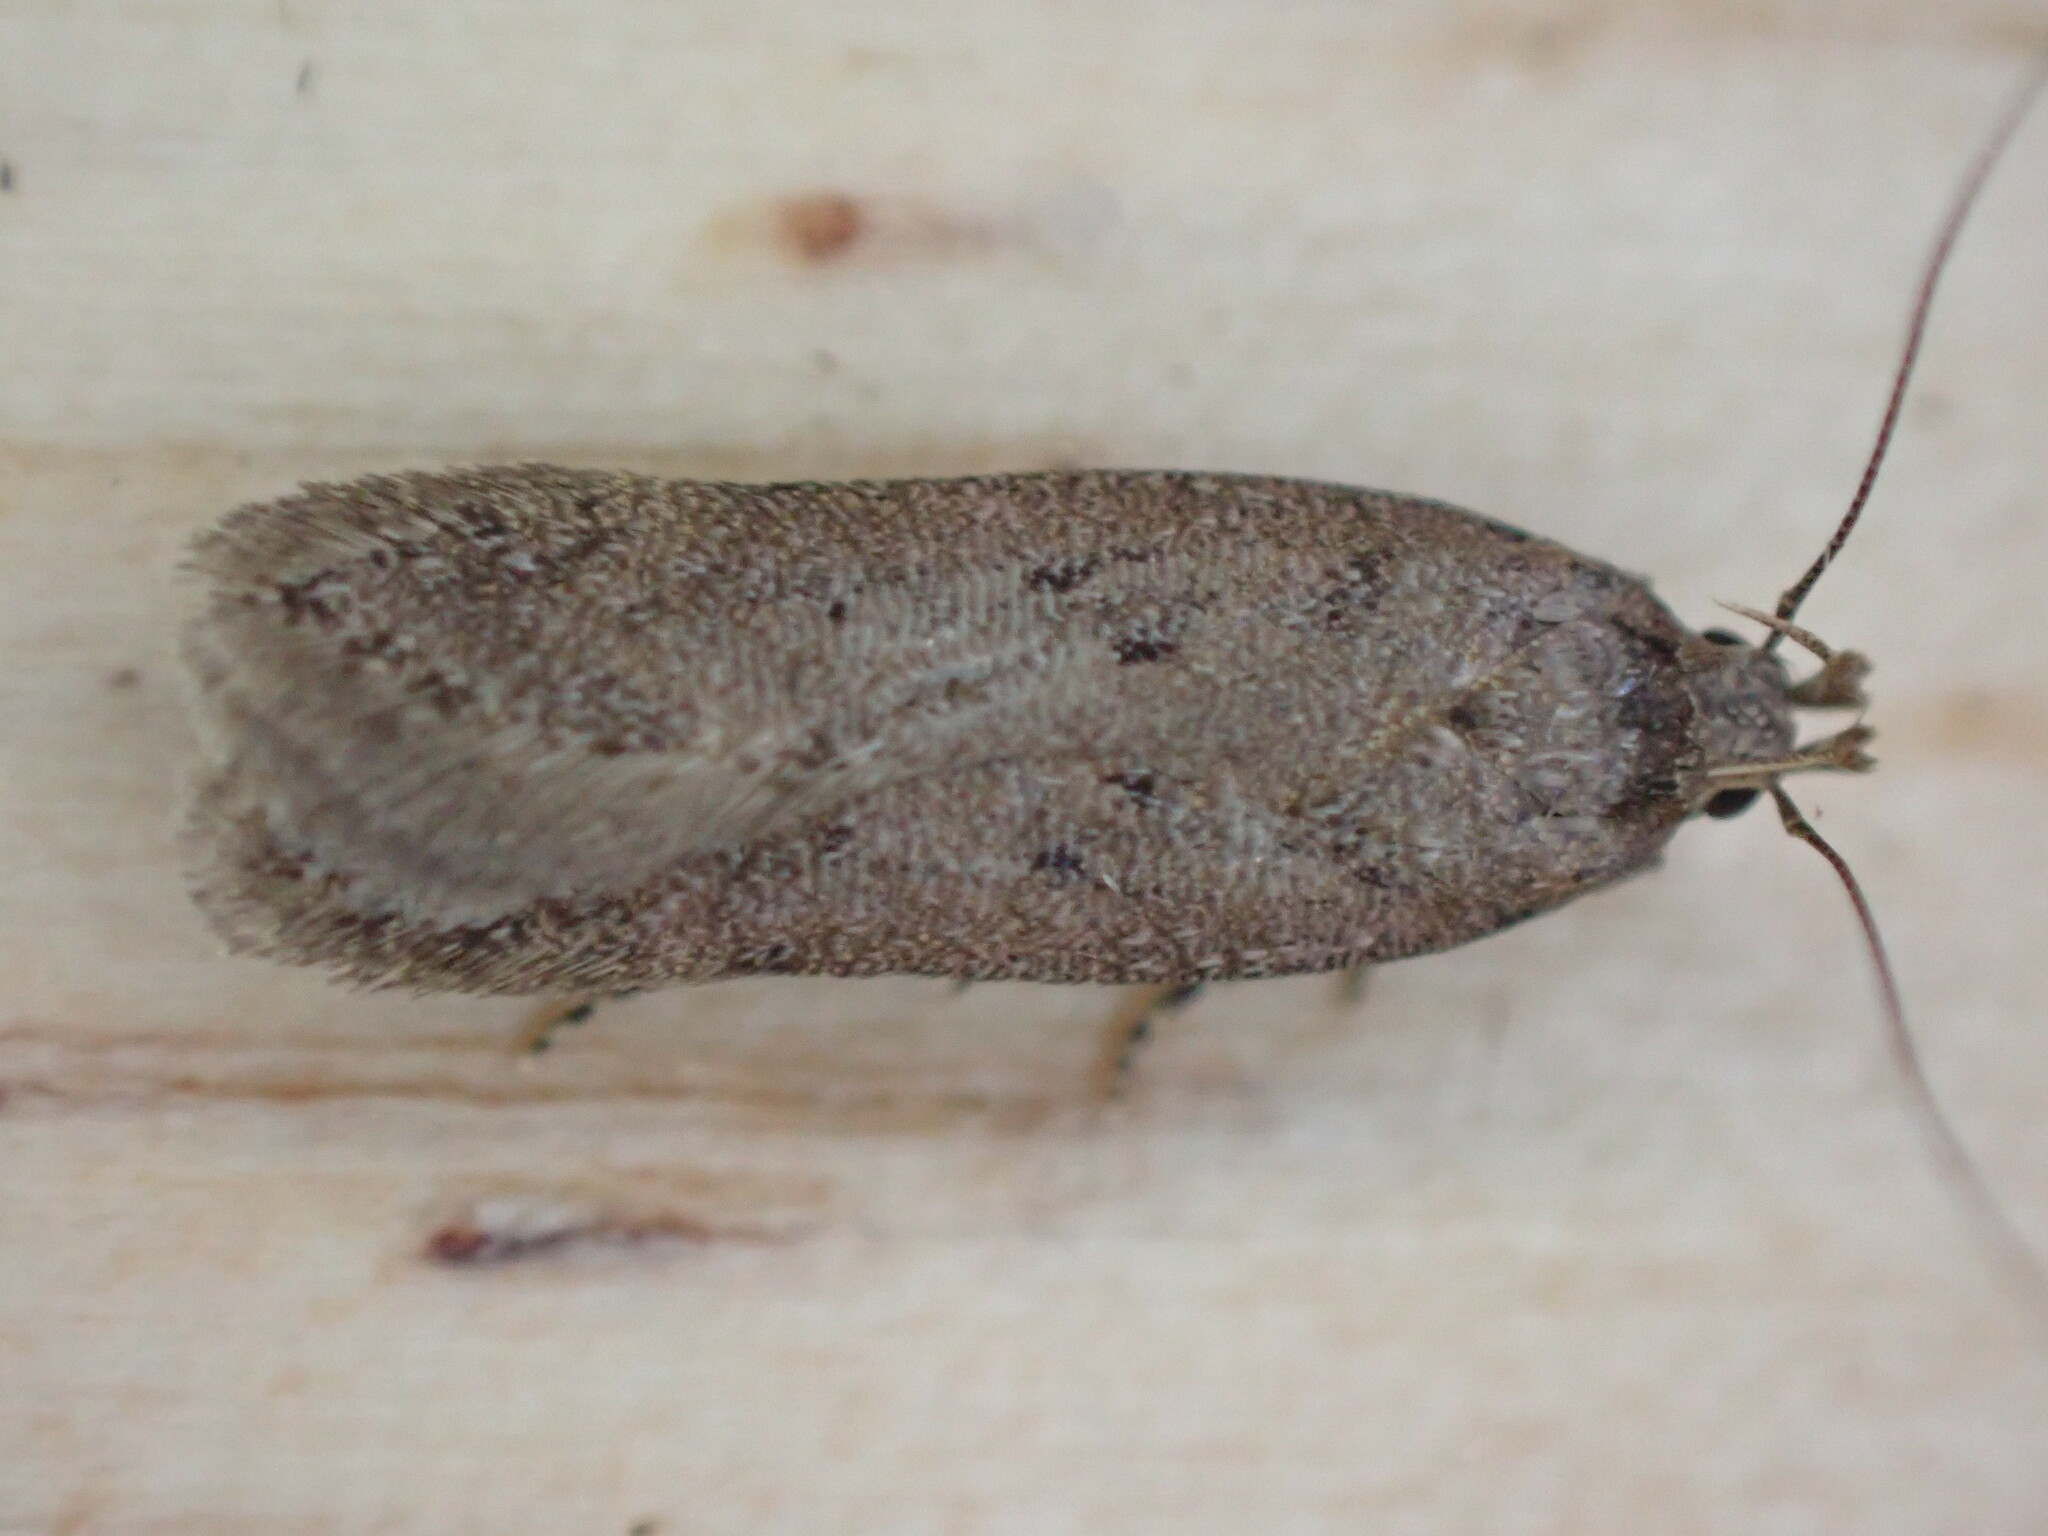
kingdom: Animalia
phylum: Arthropoda
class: Insecta
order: Lepidoptera
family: Gelechiidae
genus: Bryotropha
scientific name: Bryotropha terrella
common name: Cinerous groundling
